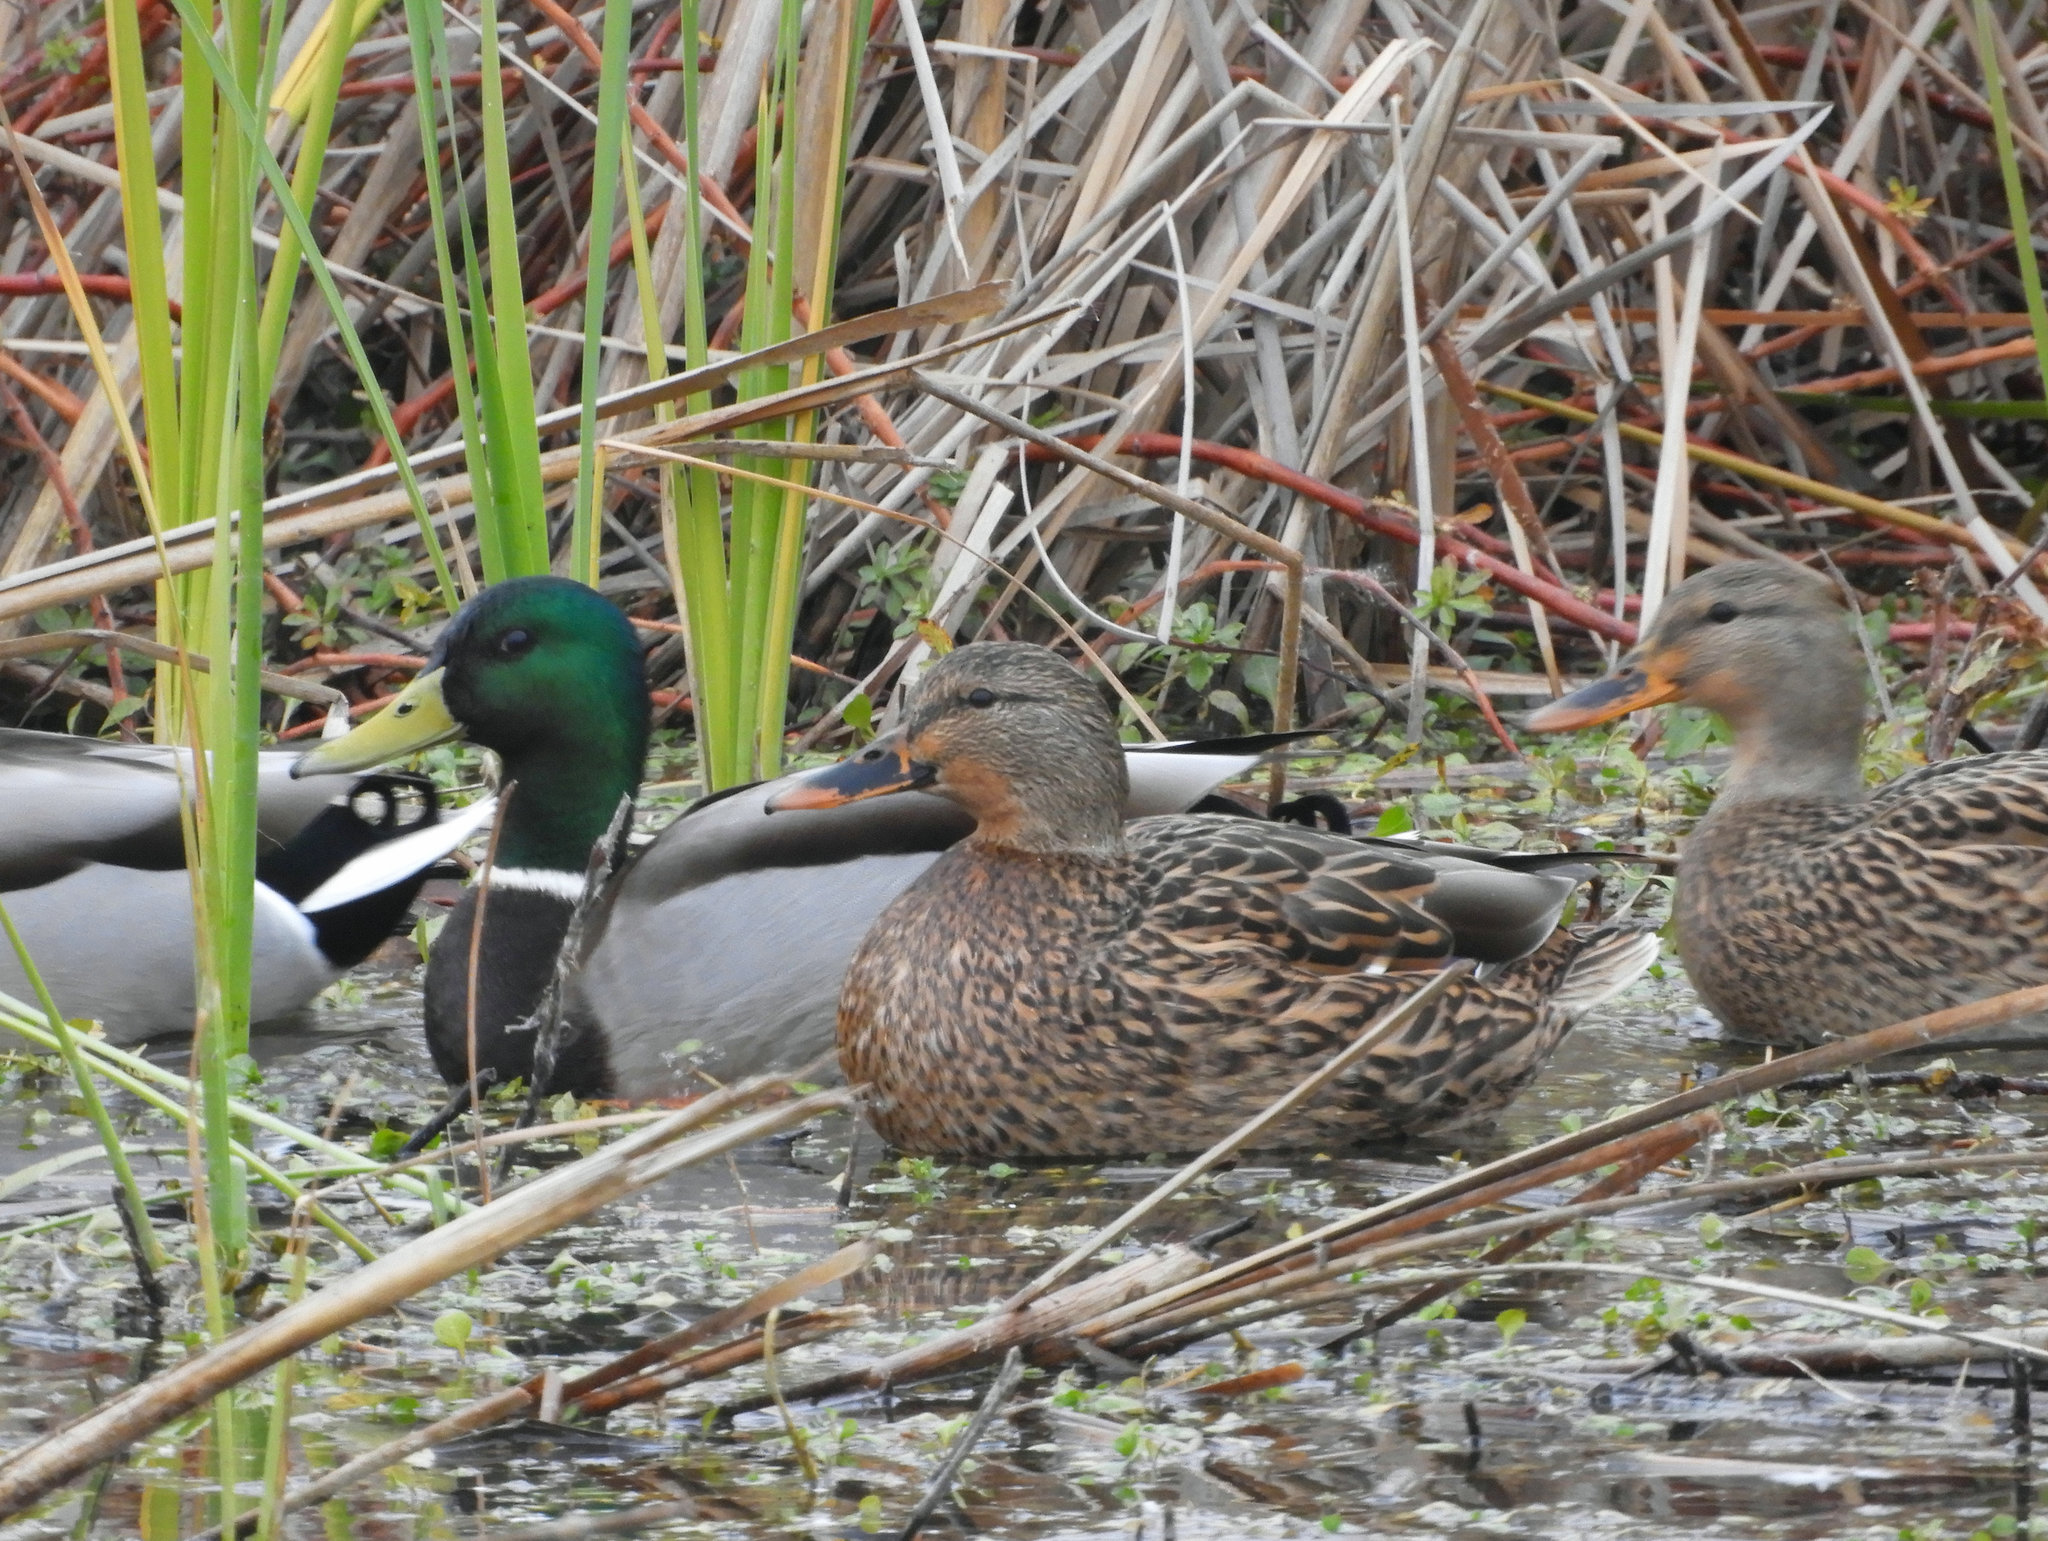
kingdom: Animalia
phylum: Chordata
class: Aves
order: Anseriformes
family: Anatidae
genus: Anas
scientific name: Anas platyrhynchos
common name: Mallard
